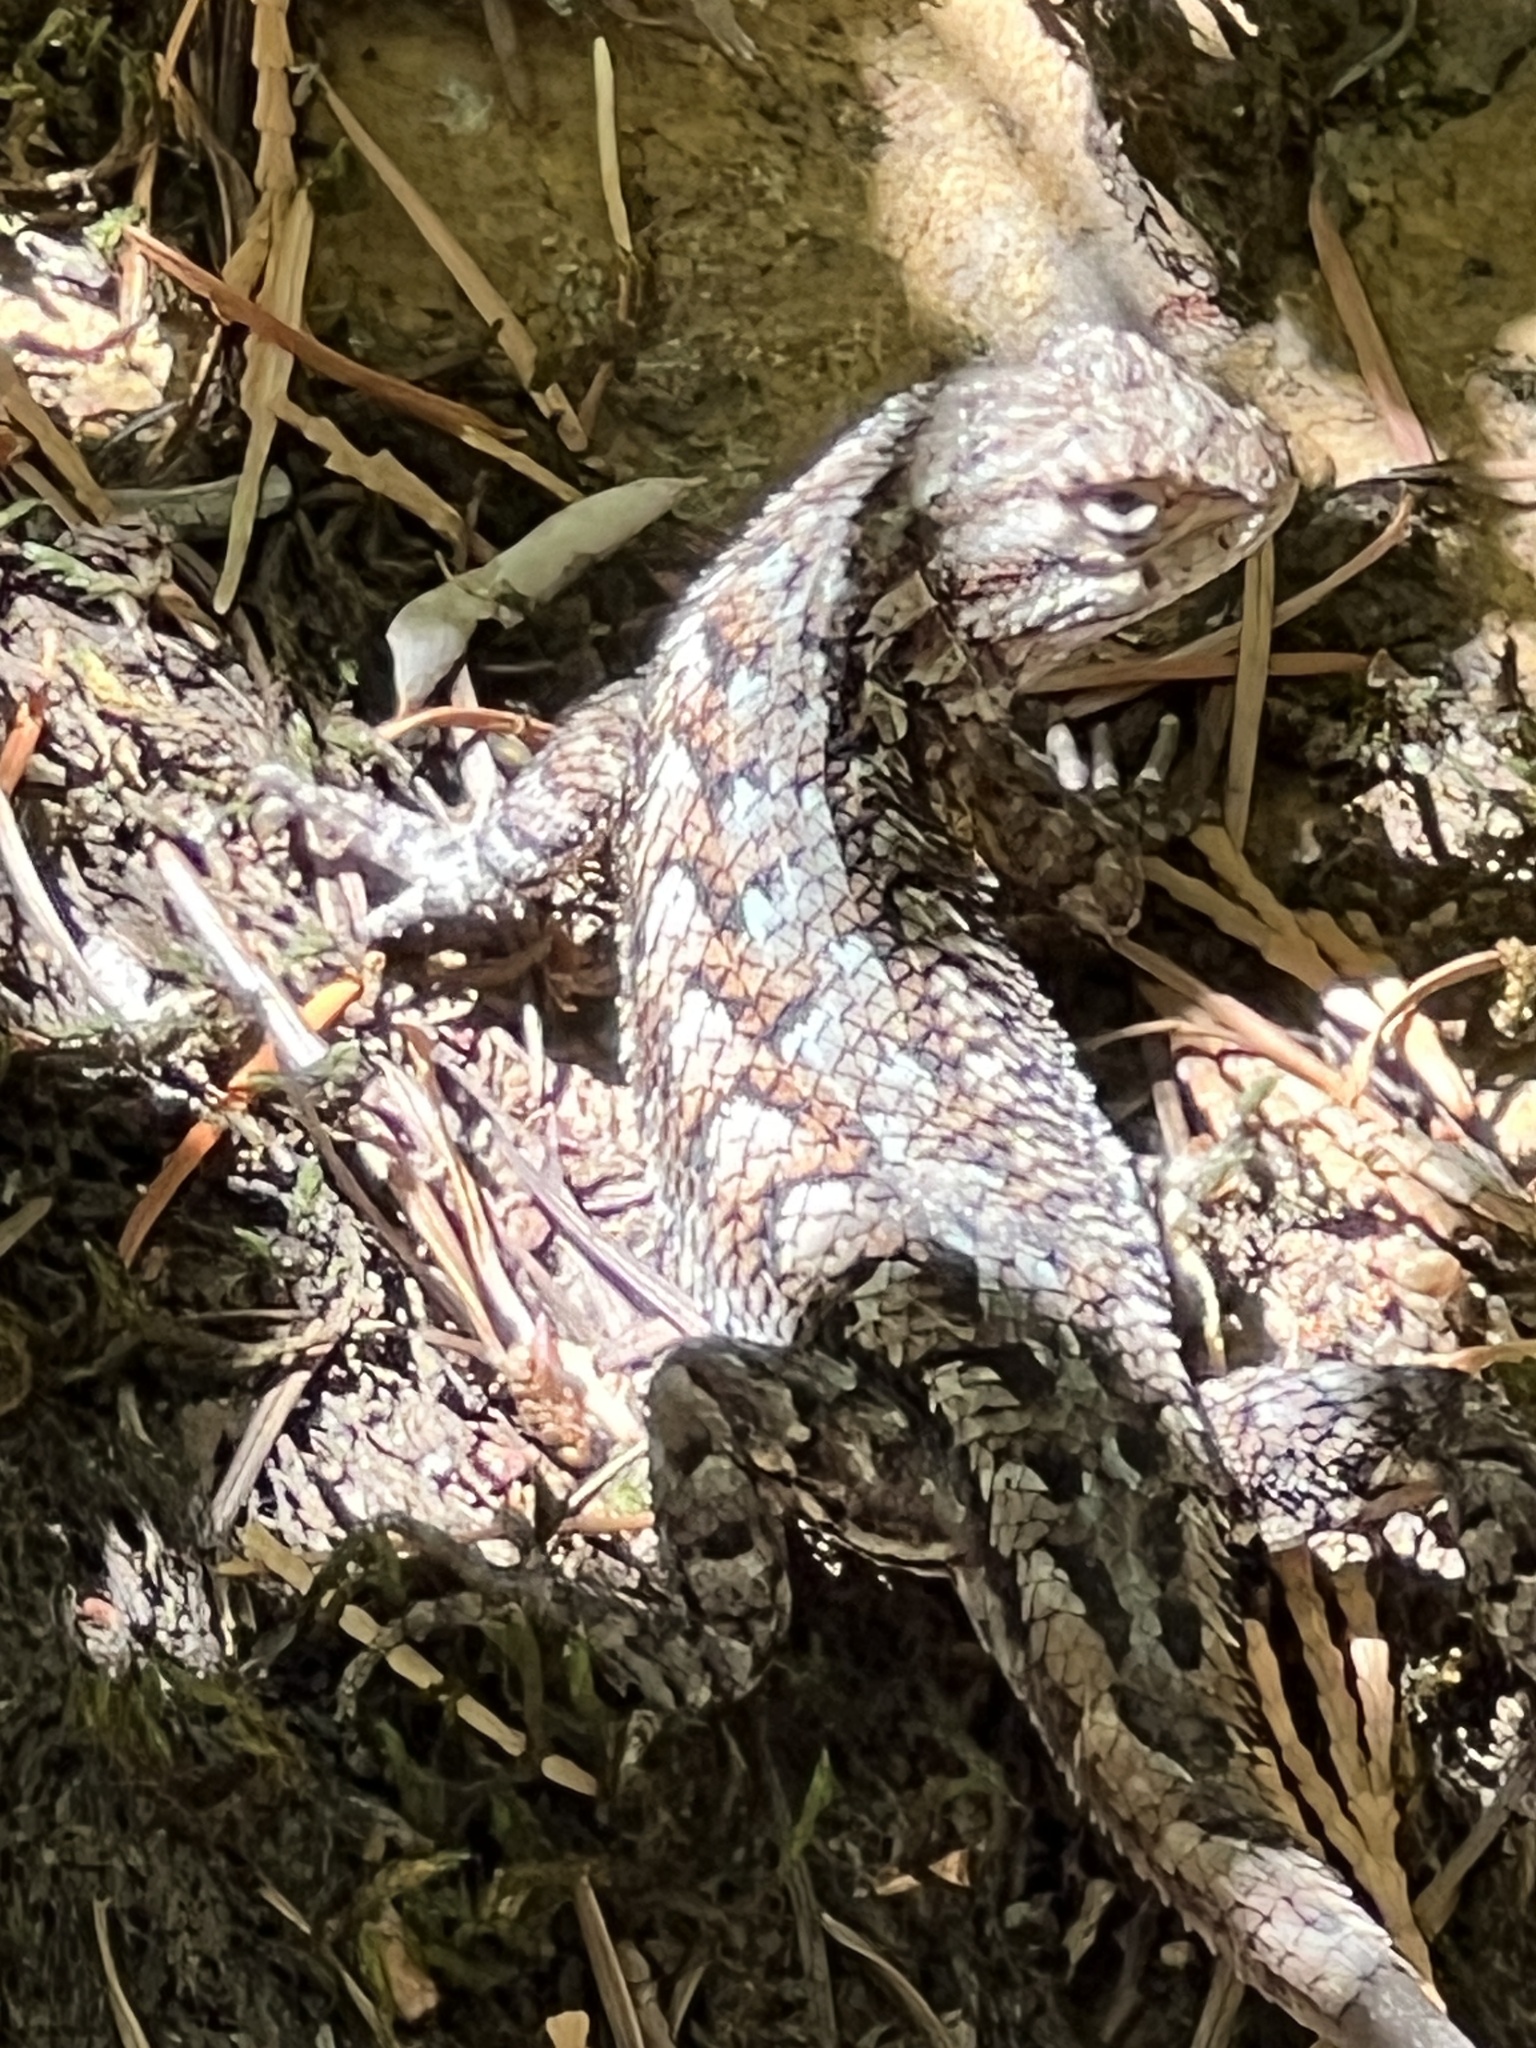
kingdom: Animalia
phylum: Chordata
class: Squamata
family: Phrynosomatidae
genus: Sceloporus
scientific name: Sceloporus occidentalis
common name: Western fence lizard
